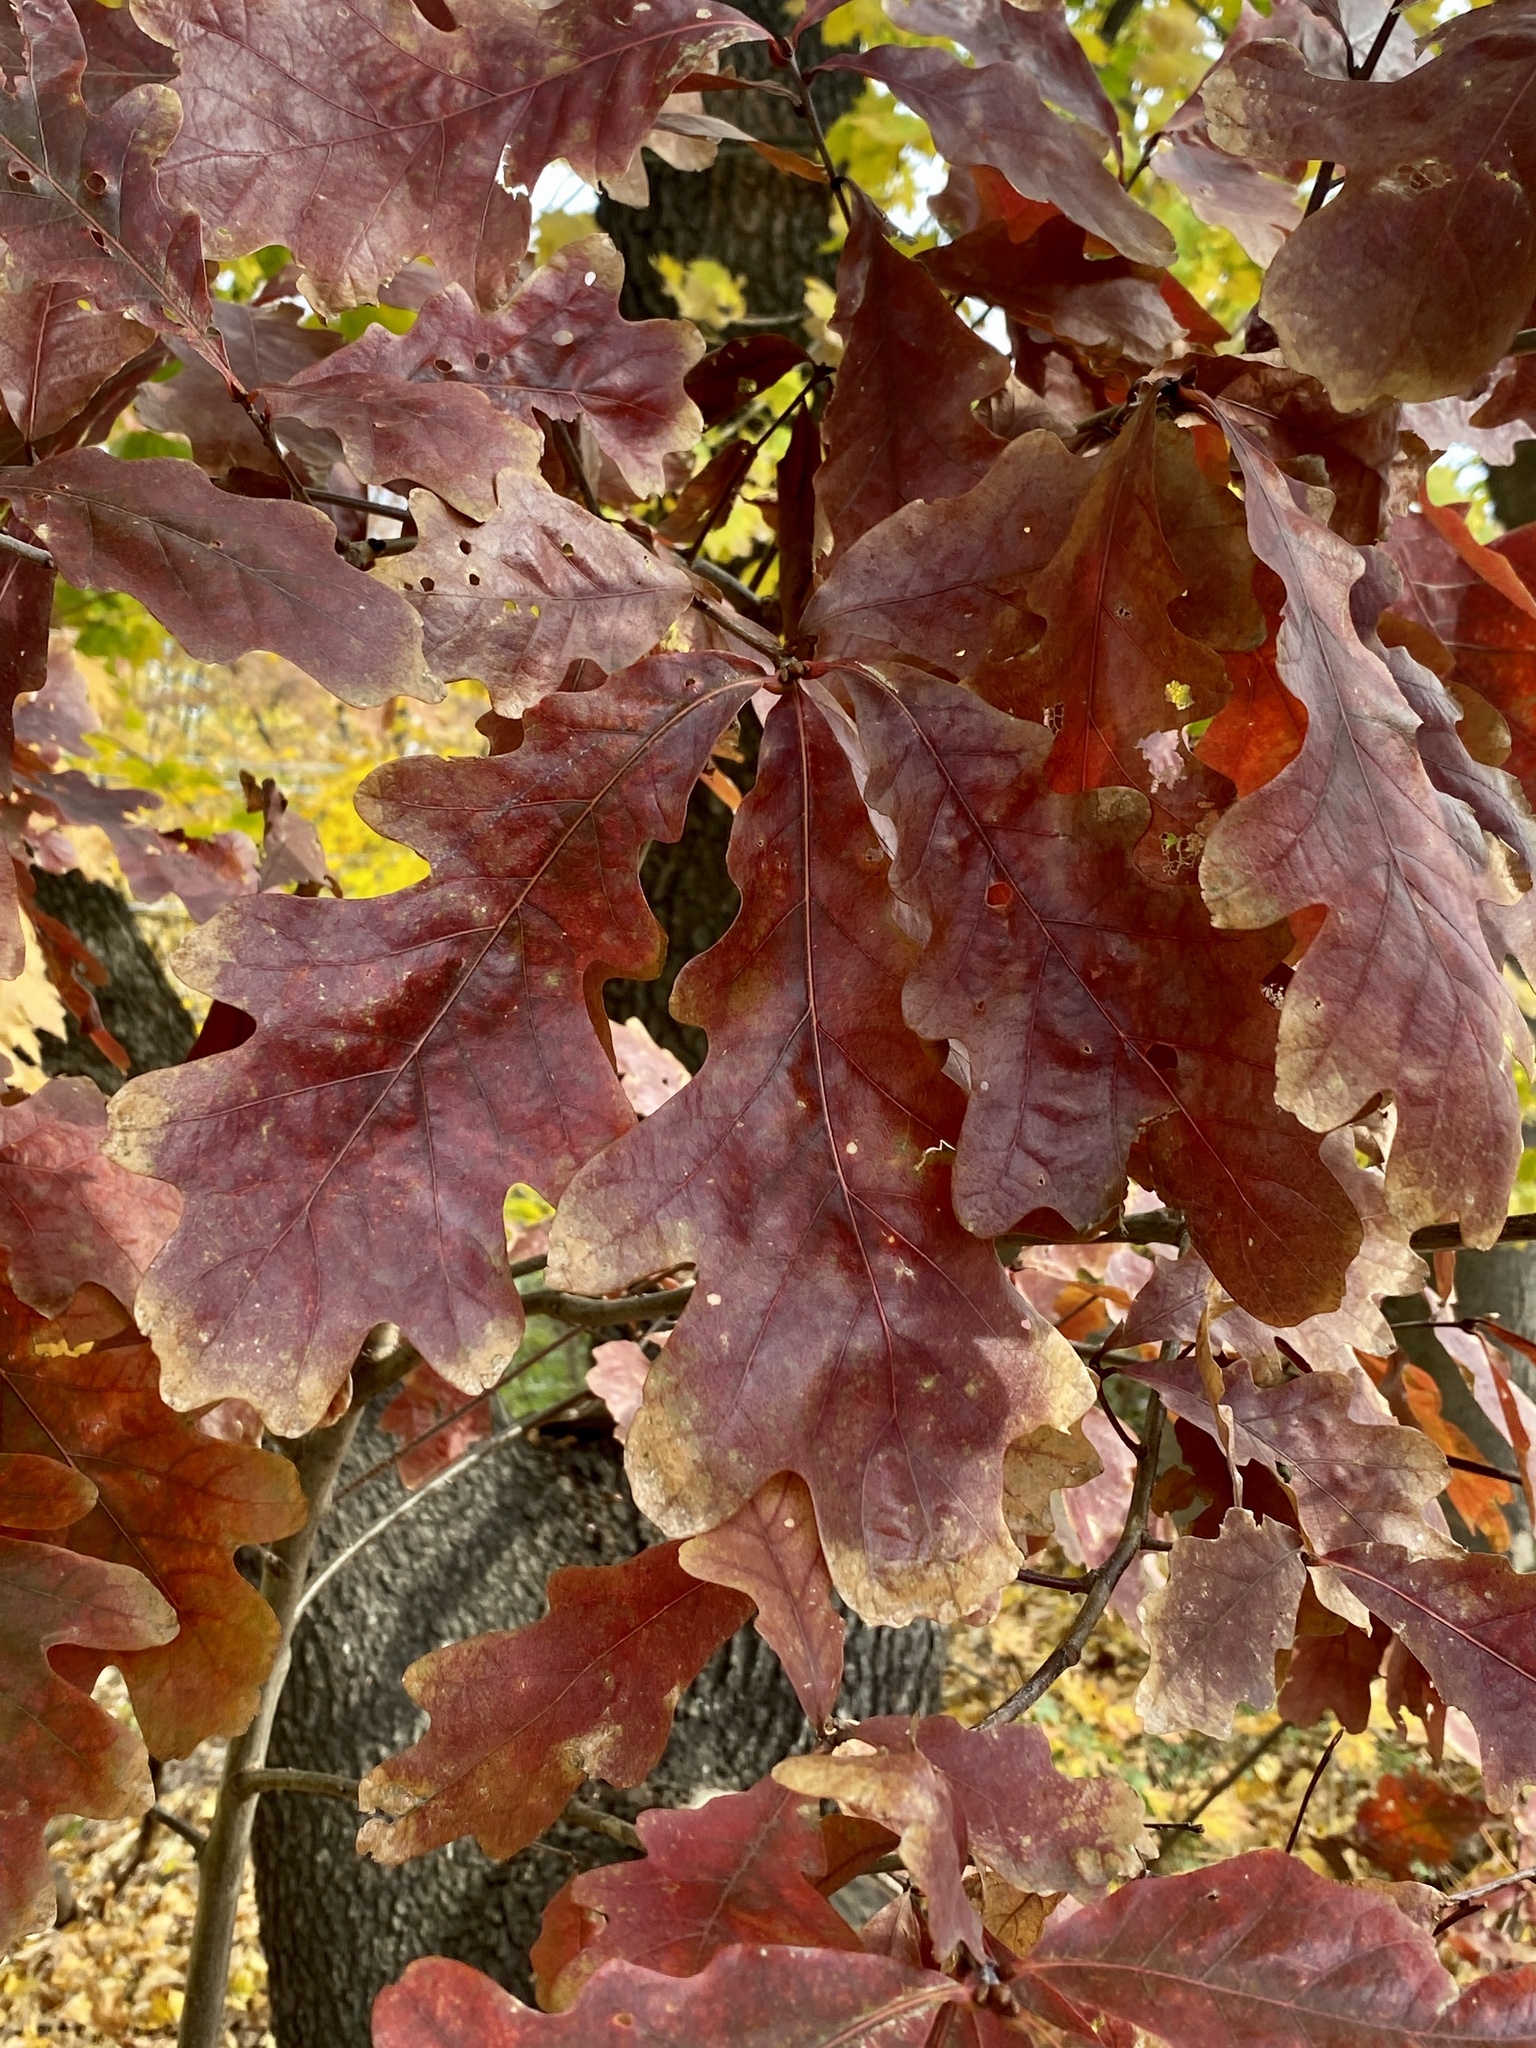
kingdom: Plantae
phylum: Tracheophyta
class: Magnoliopsida
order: Fagales
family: Fagaceae
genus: Quercus
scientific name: Quercus alba
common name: White oak
